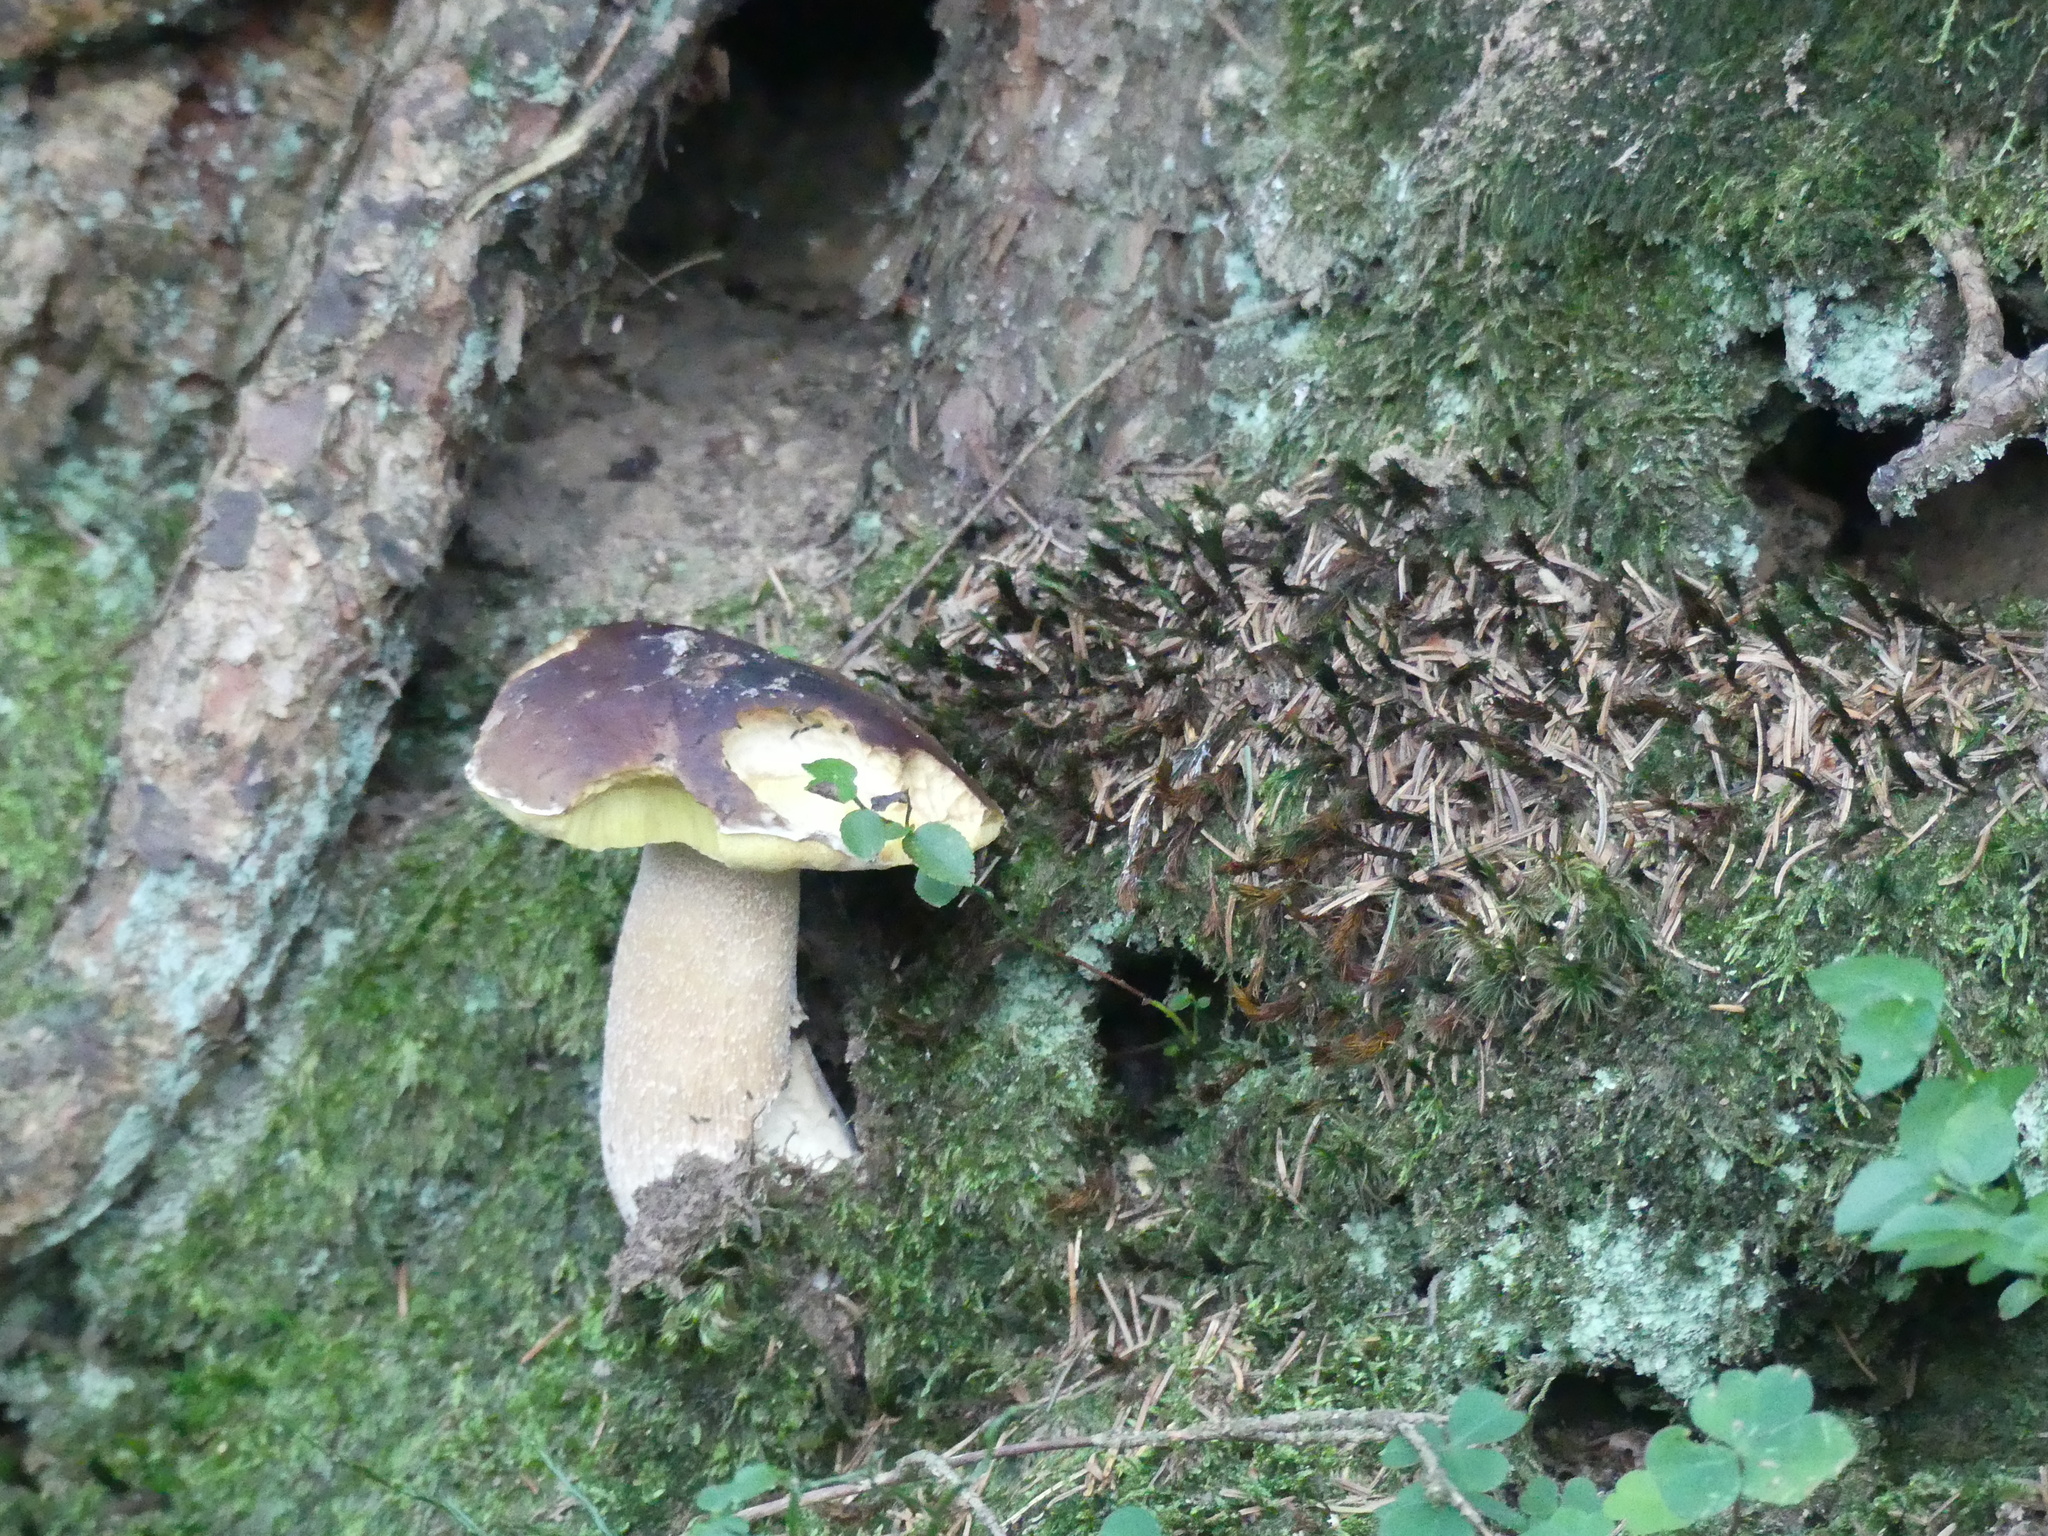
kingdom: Fungi
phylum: Basidiomycota
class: Agaricomycetes
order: Boletales
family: Boletaceae
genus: Boletus
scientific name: Boletus edulis
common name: Cep
